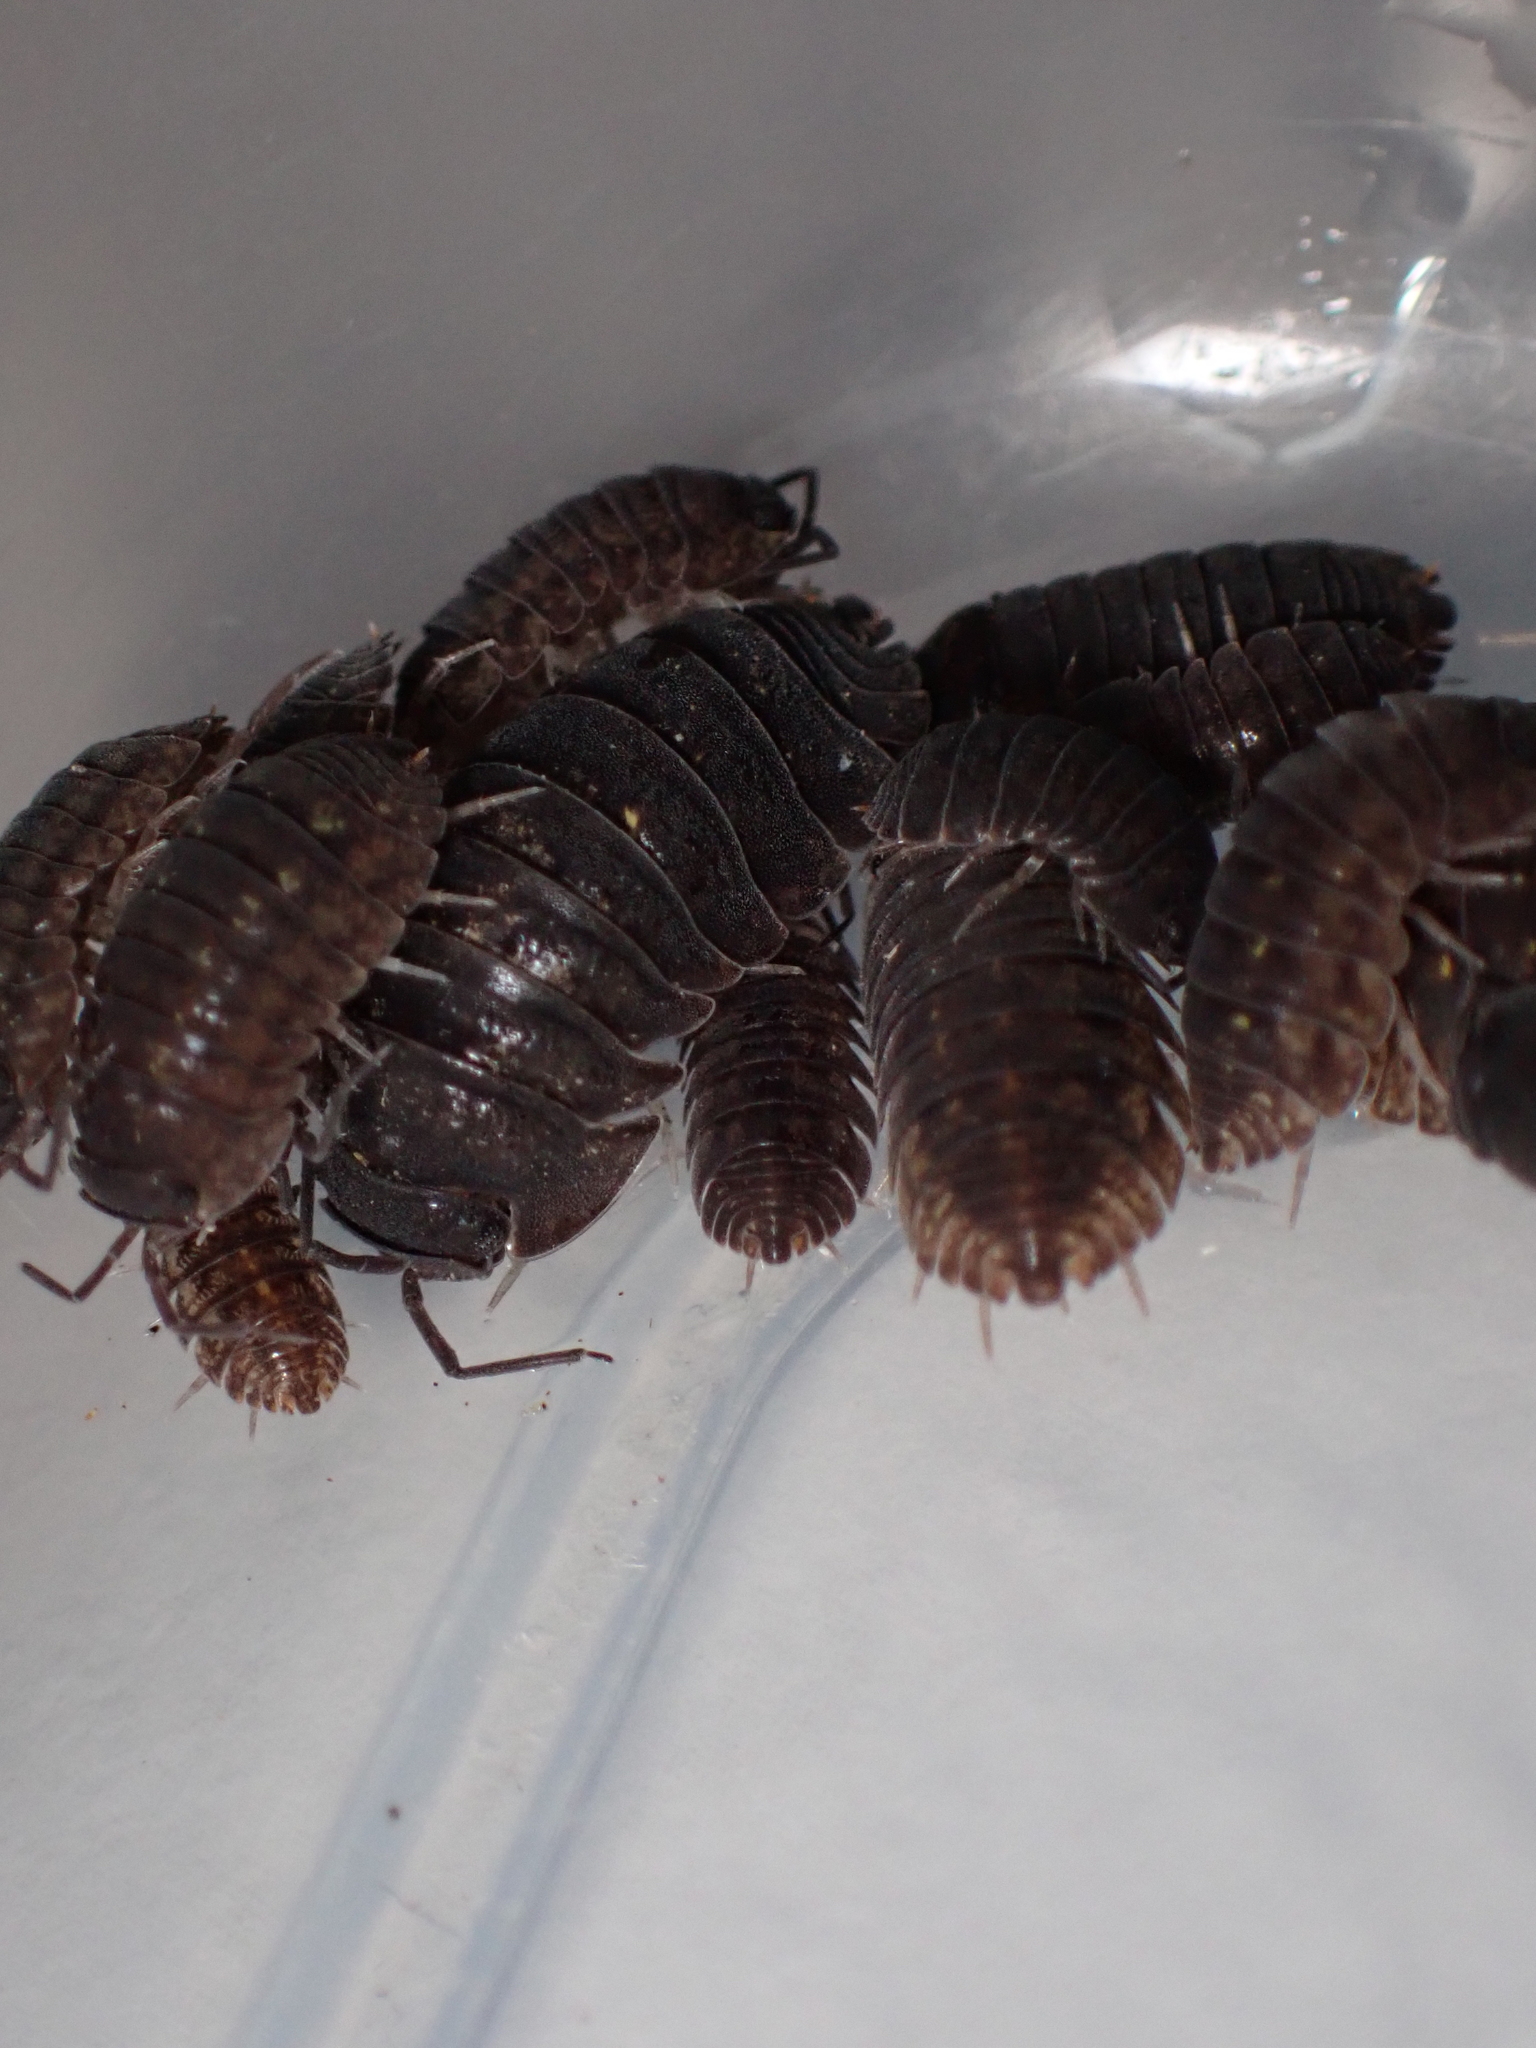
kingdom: Animalia
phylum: Arthropoda
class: Malacostraca
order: Isopoda
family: Armadillidae
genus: Cubaris
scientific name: Cubaris marmorata
